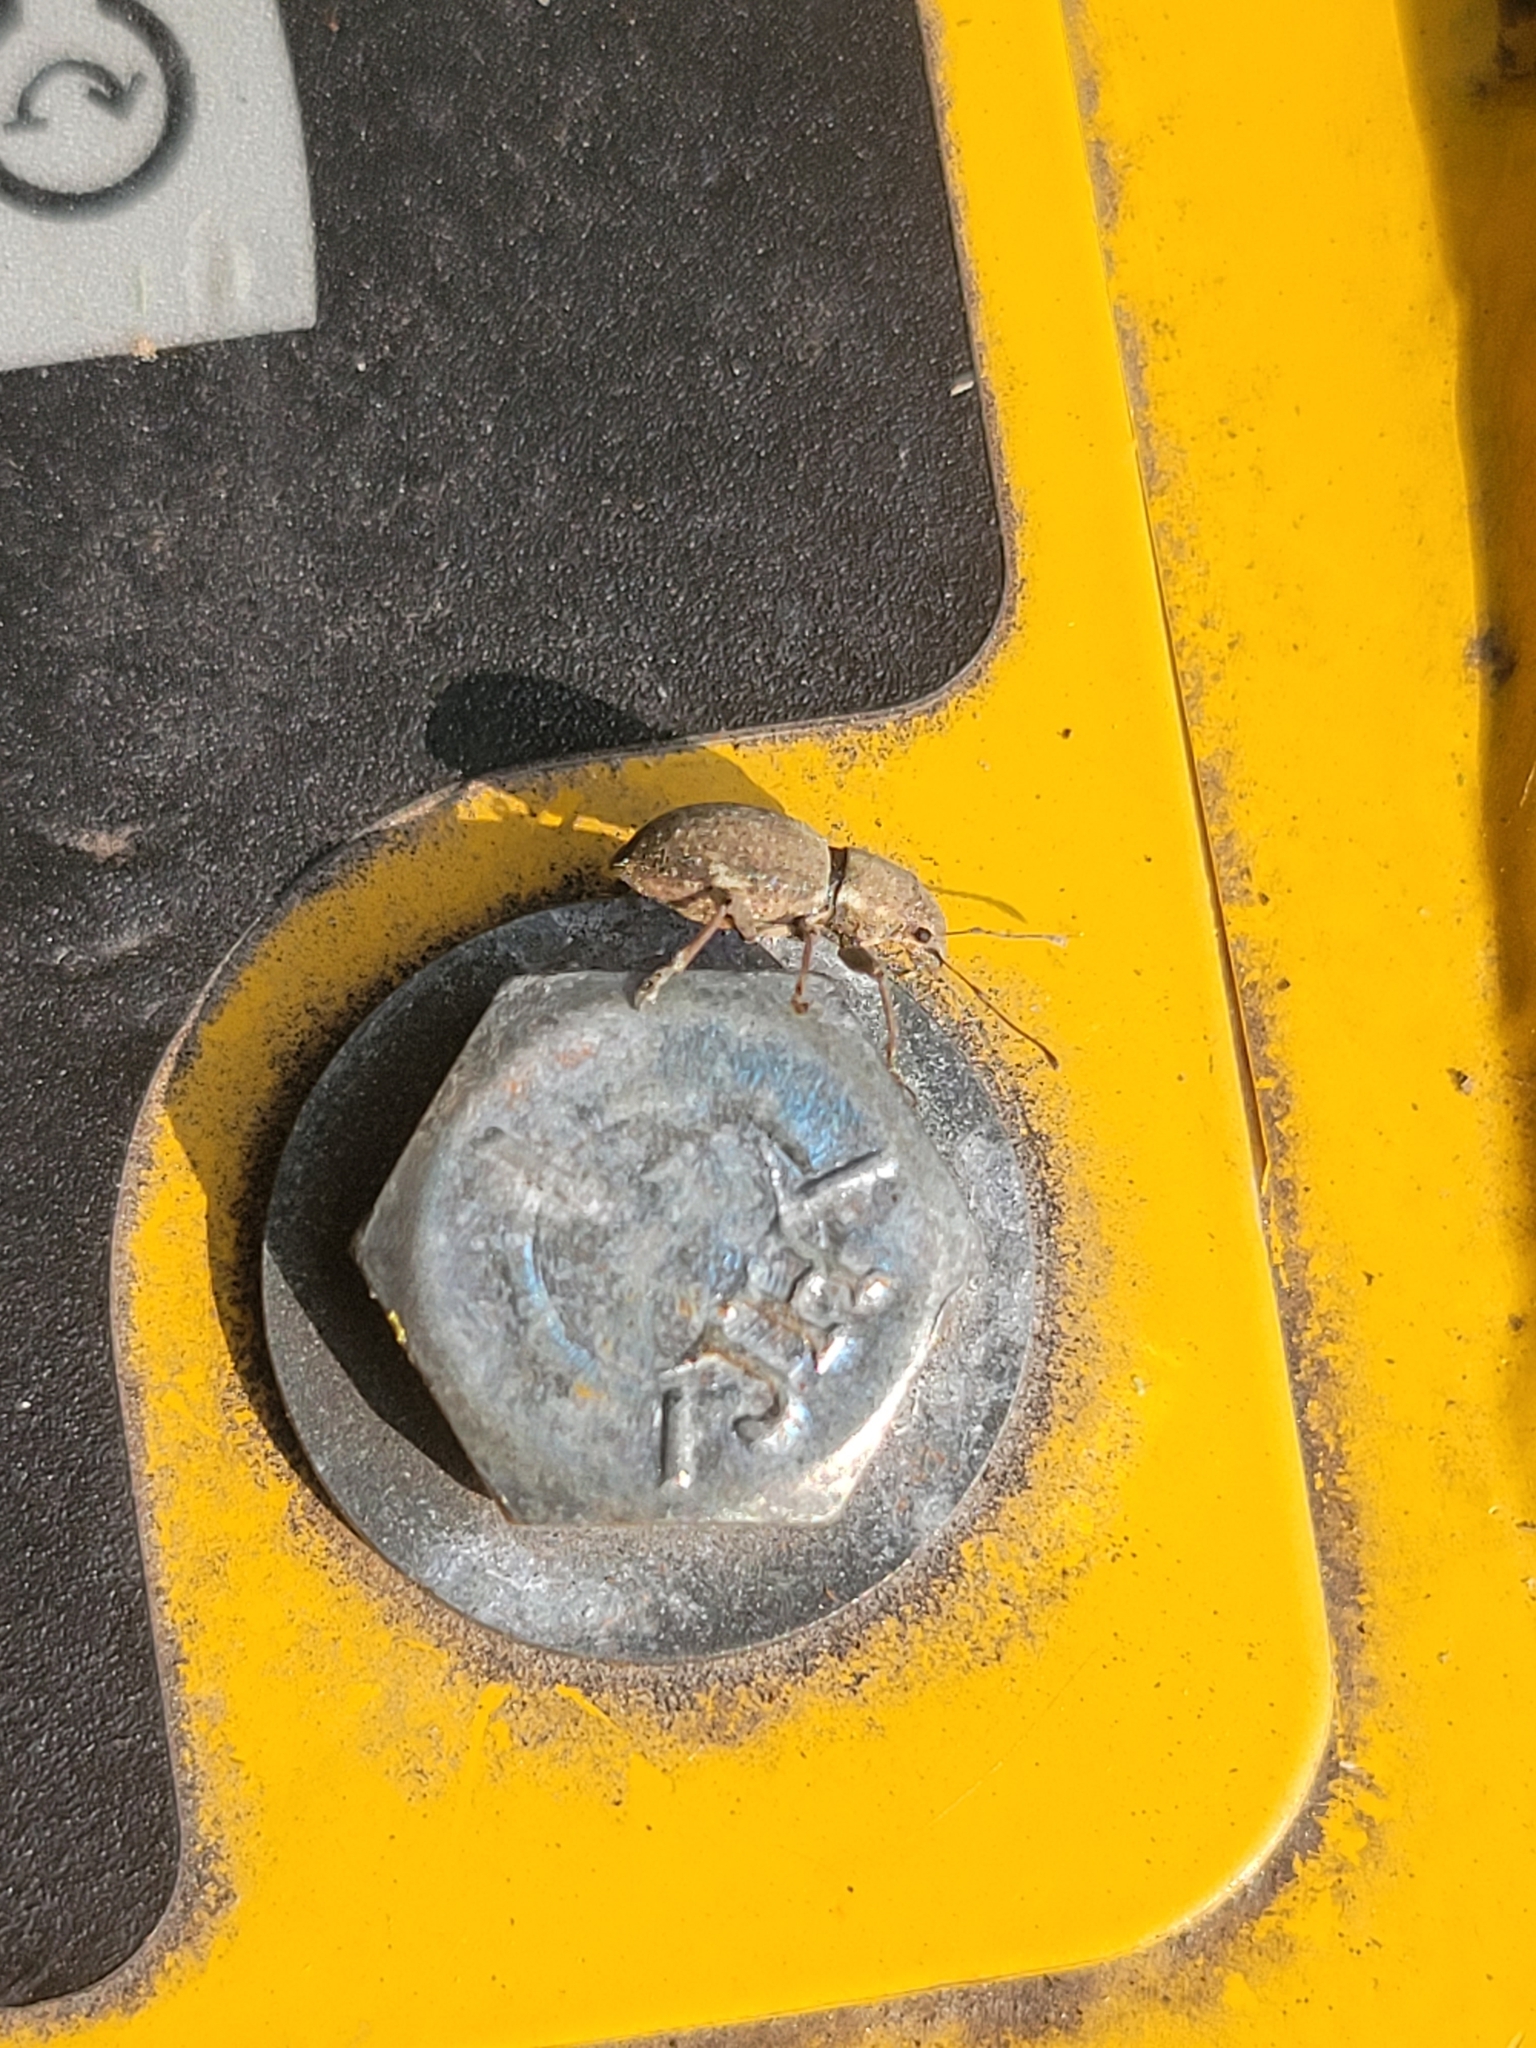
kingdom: Animalia
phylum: Arthropoda
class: Insecta
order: Coleoptera
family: Curculionidae
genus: Naupactus
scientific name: Naupactus cervinus
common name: Fuller rose beetle
